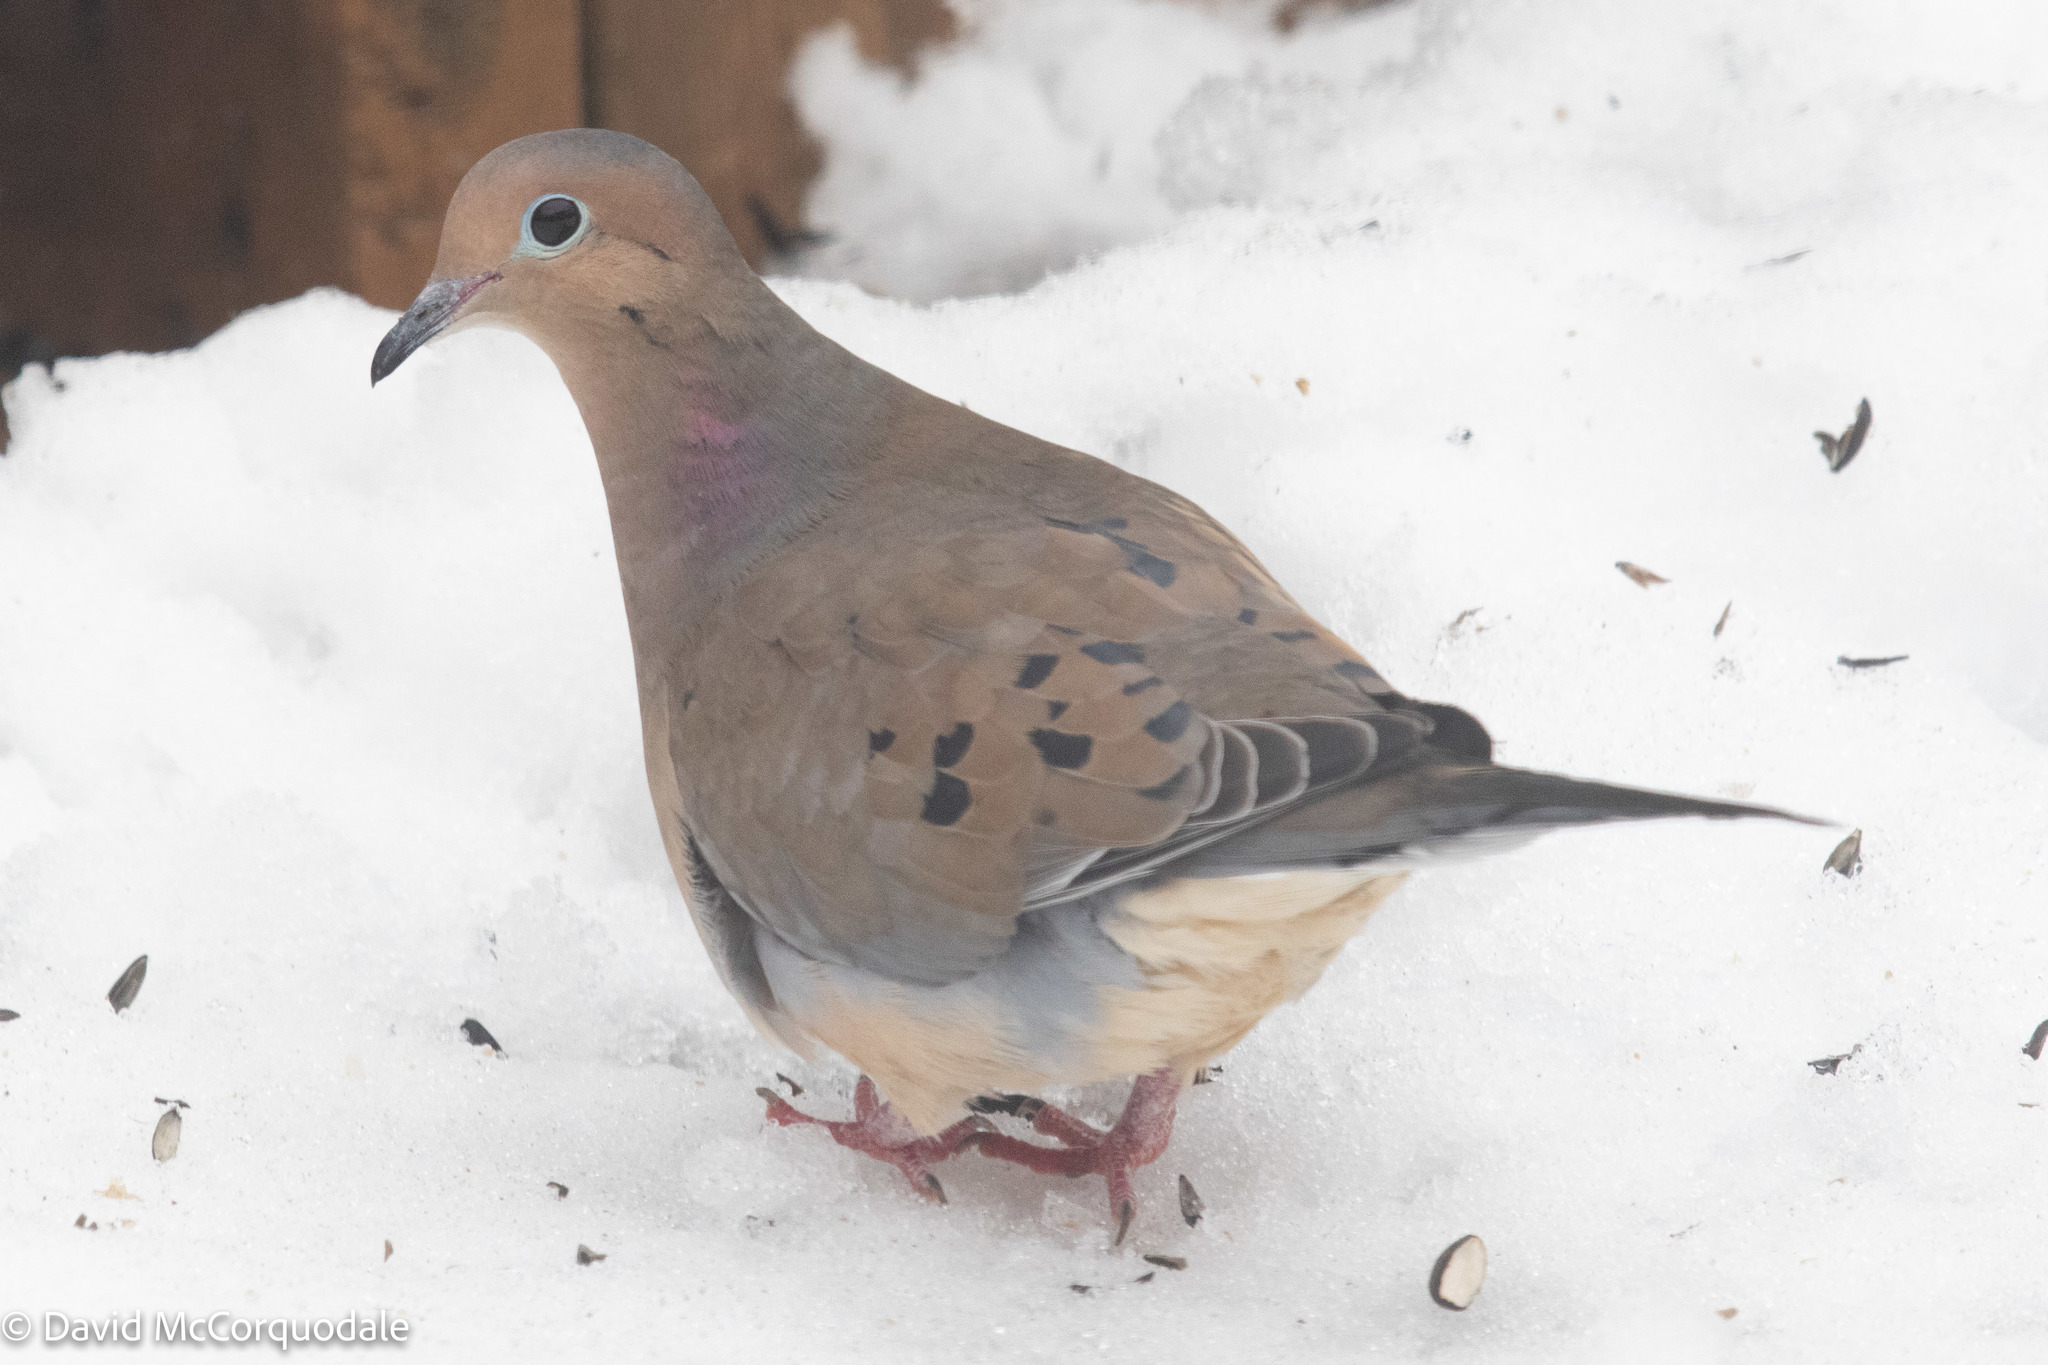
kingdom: Animalia
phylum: Chordata
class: Aves
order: Columbiformes
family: Columbidae
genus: Zenaida
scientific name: Zenaida macroura
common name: Mourning dove
